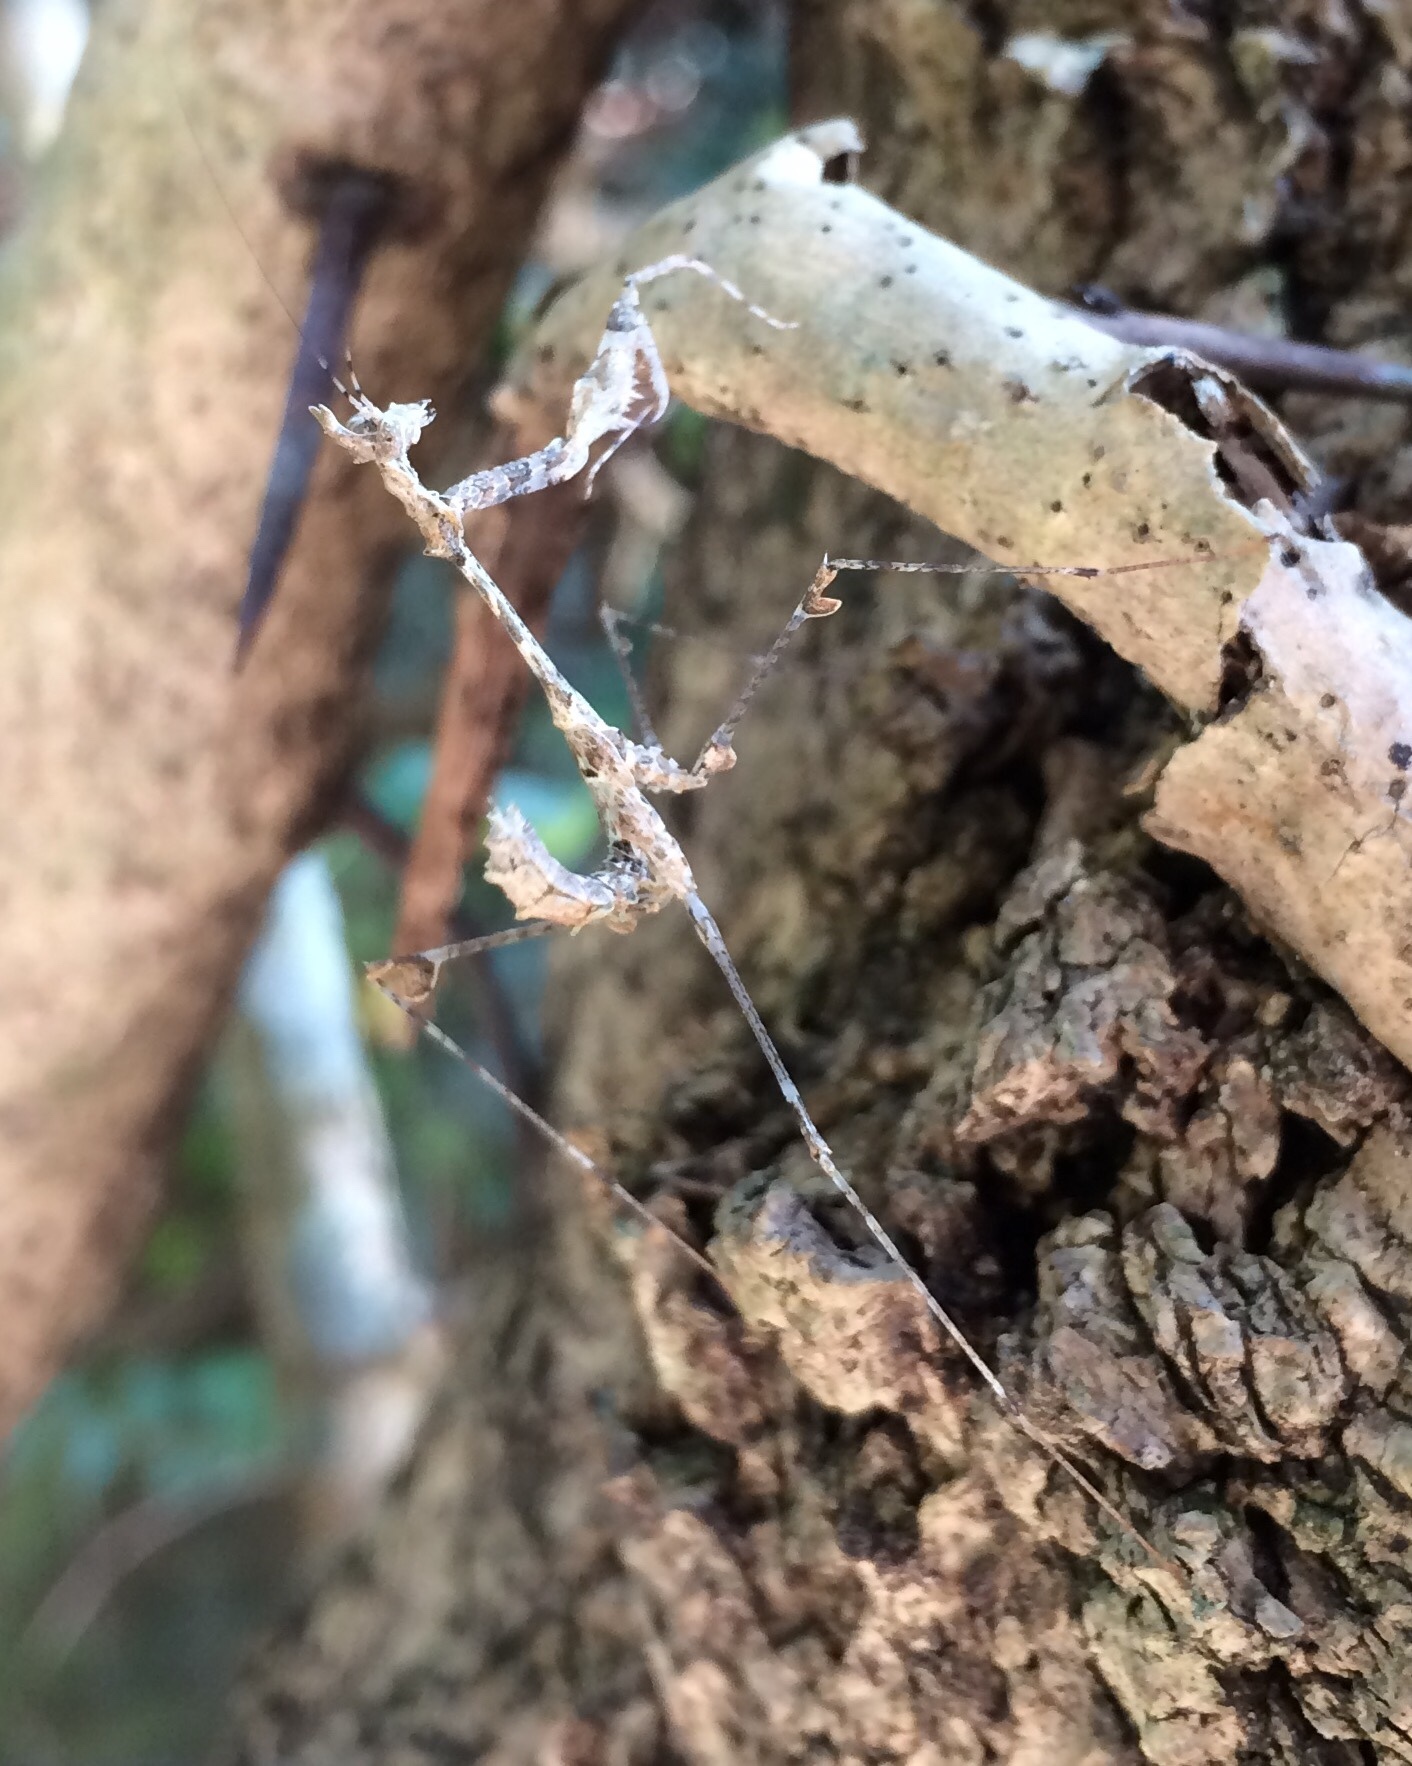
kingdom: Animalia
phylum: Arthropoda
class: Insecta
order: Mantodea
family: Hymenopodidae
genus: Sibylla
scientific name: Sibylla pretiosa
